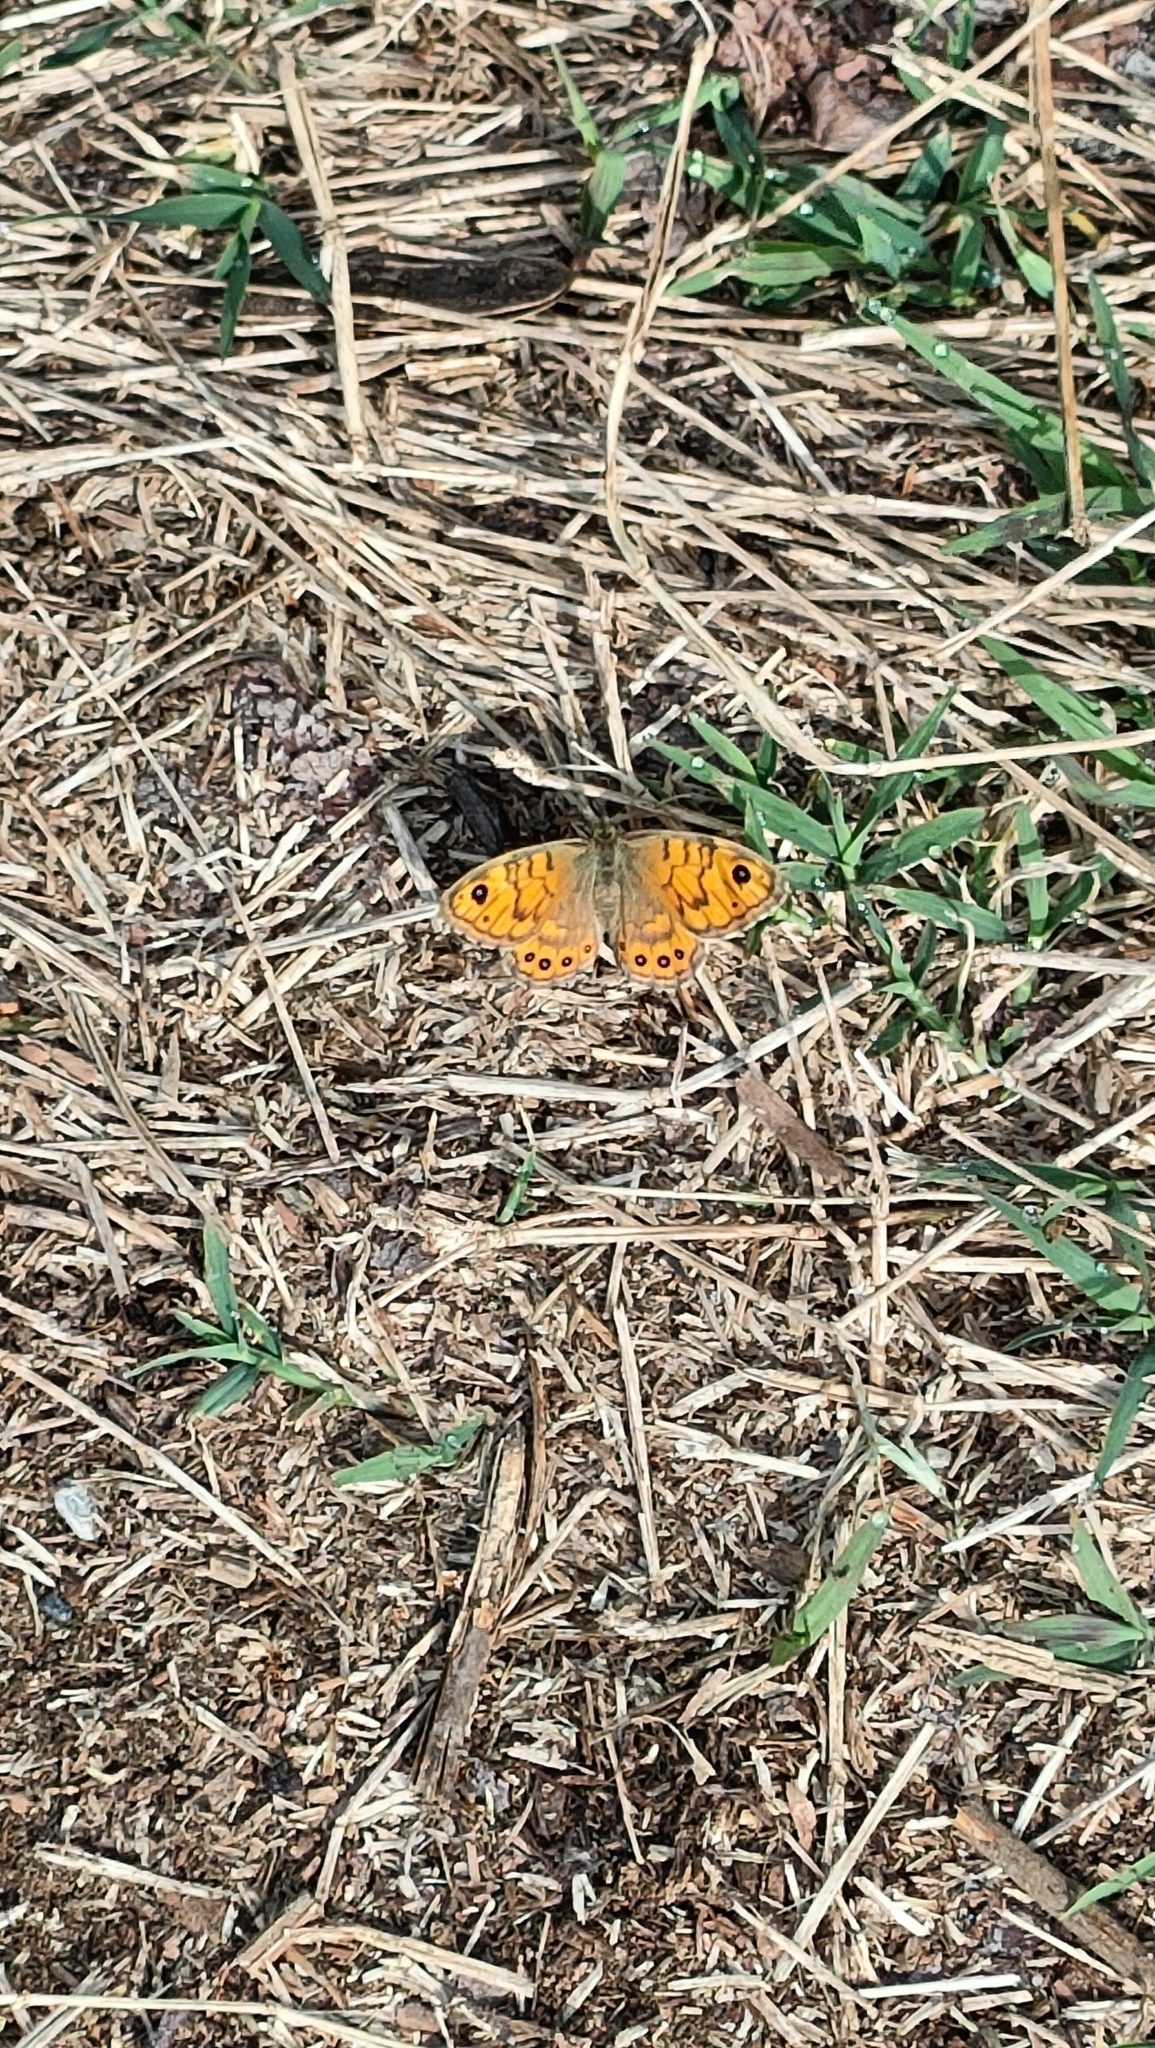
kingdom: Animalia
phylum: Arthropoda
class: Insecta
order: Lepidoptera
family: Nymphalidae
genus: Pararge
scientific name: Pararge Lasiommata megera
